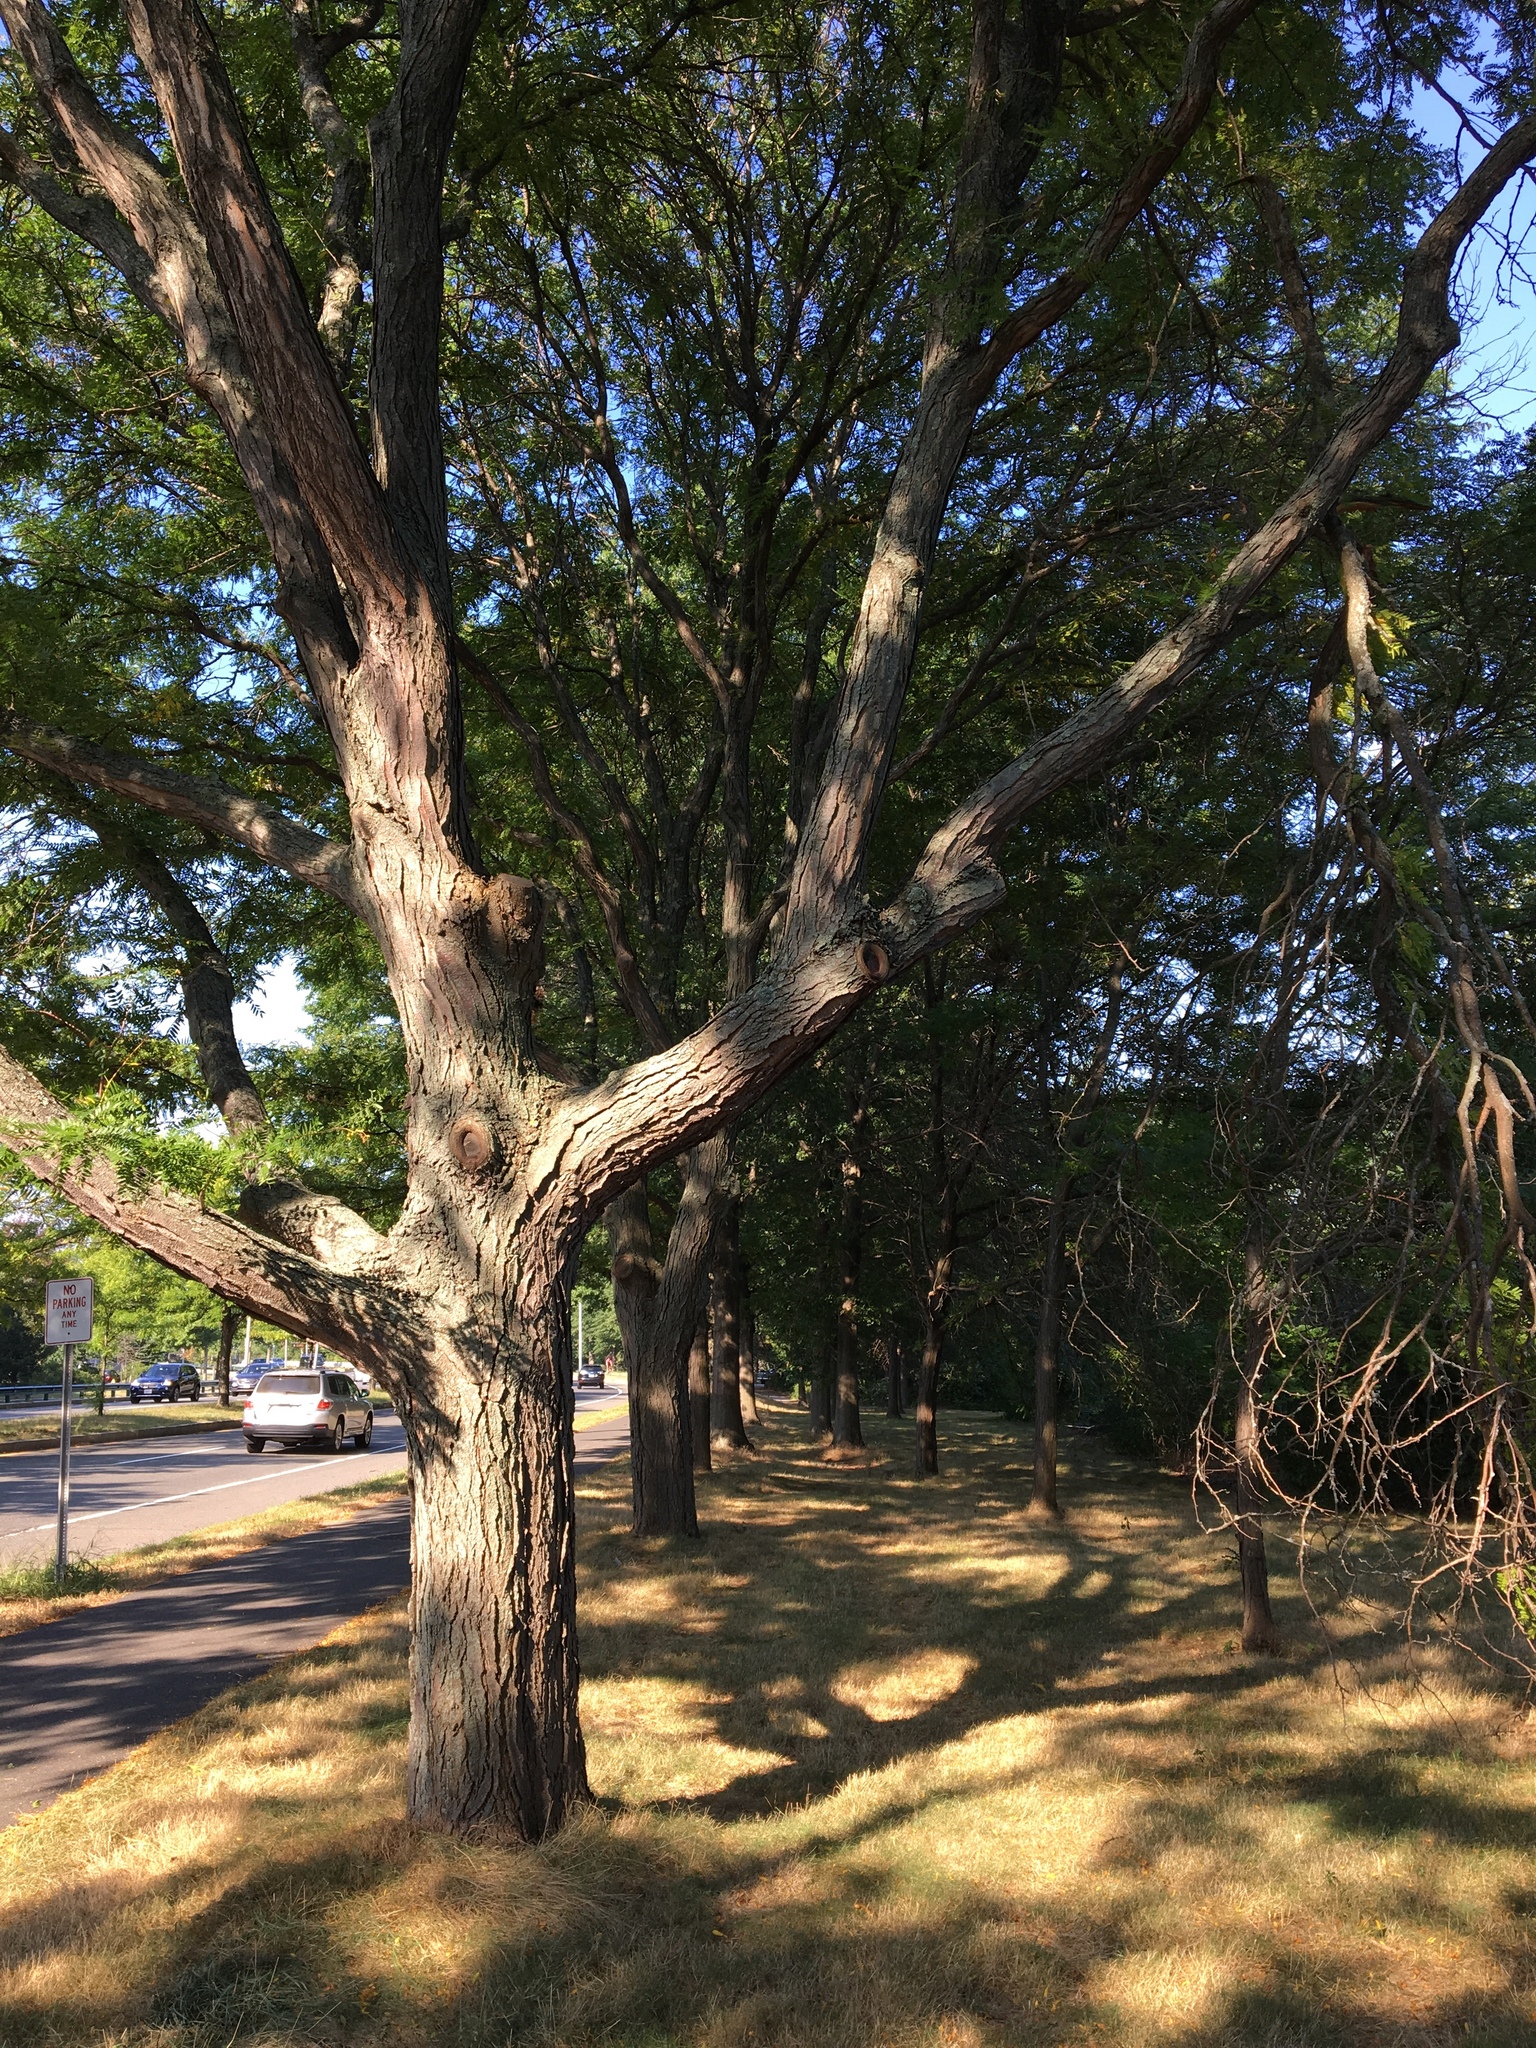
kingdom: Plantae
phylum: Tracheophyta
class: Magnoliopsida
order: Fabales
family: Fabaceae
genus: Gleditsia
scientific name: Gleditsia triacanthos
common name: Common honeylocust
